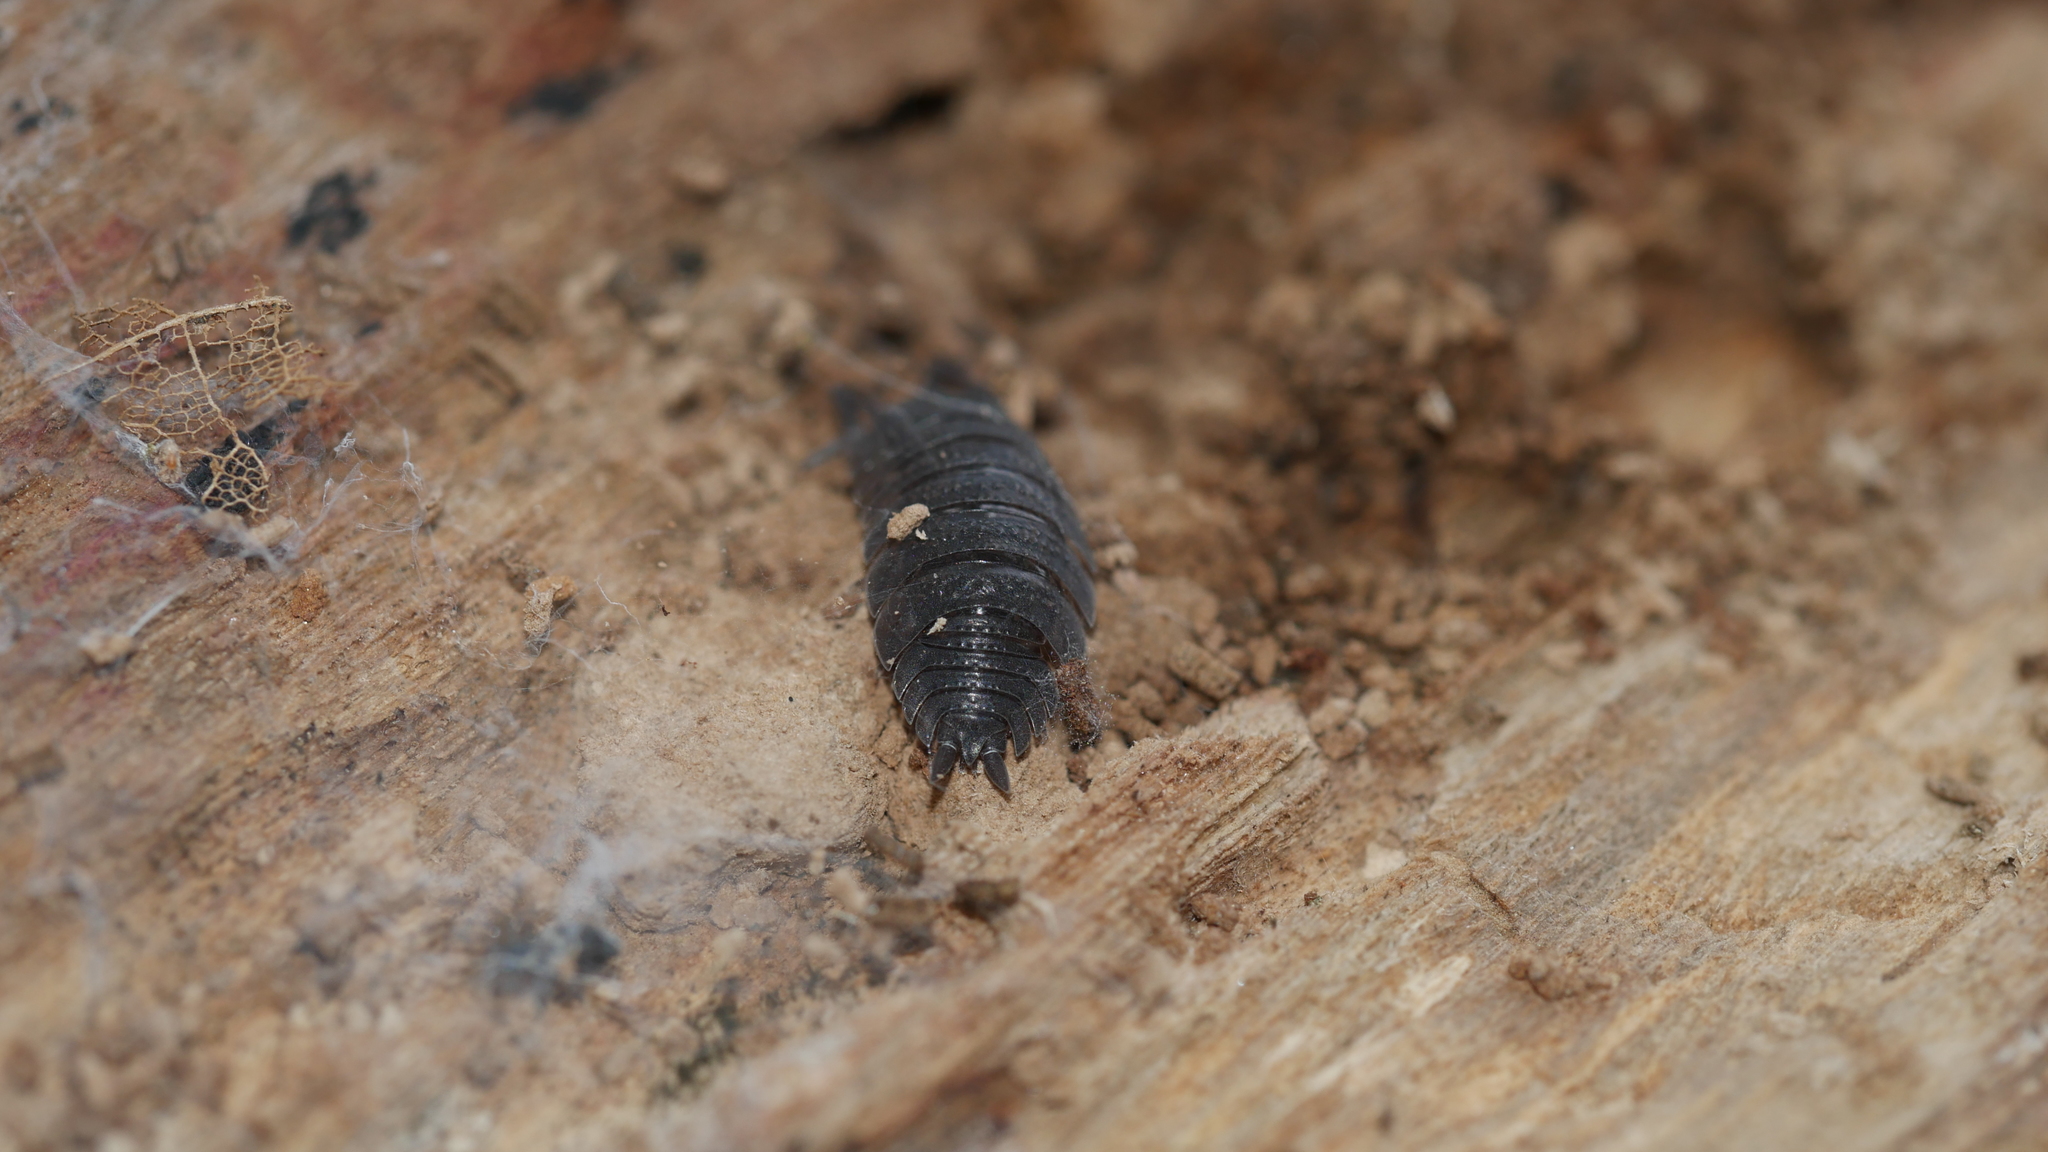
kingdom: Animalia
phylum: Arthropoda
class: Malacostraca
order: Isopoda
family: Porcellionidae
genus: Porcellio
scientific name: Porcellio scaber
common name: Common rough woodlouse
